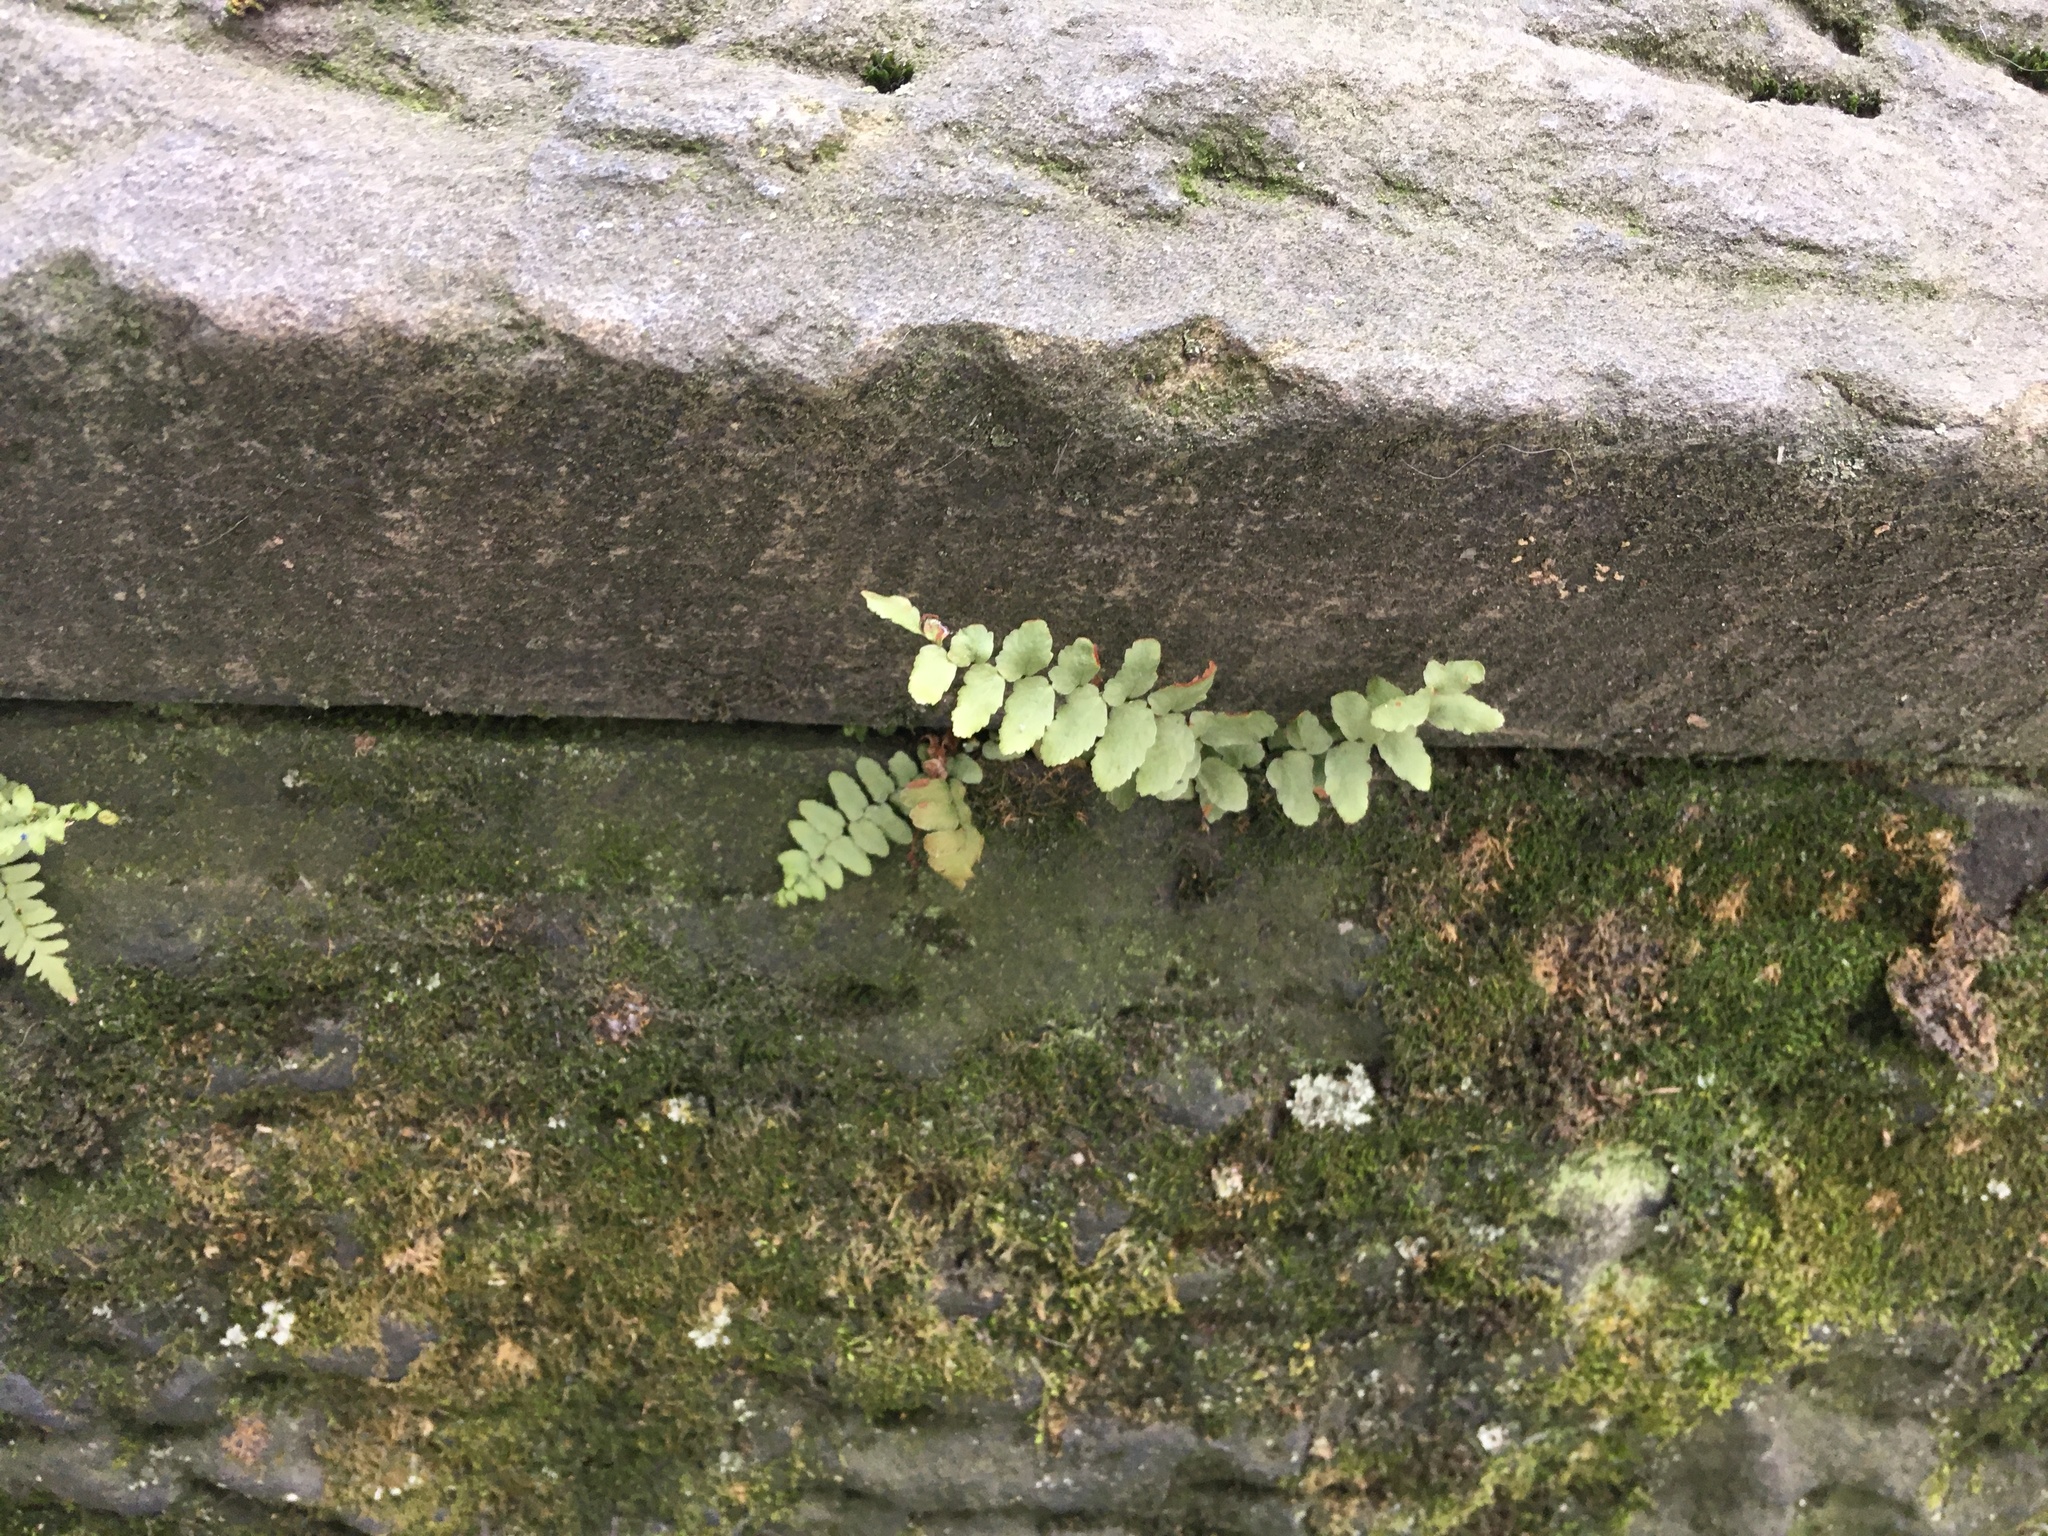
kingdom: Plantae
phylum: Tracheophyta
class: Polypodiopsida
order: Polypodiales
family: Aspleniaceae
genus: Asplenium
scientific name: Asplenium platyneuron
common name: Ebony spleenwort
